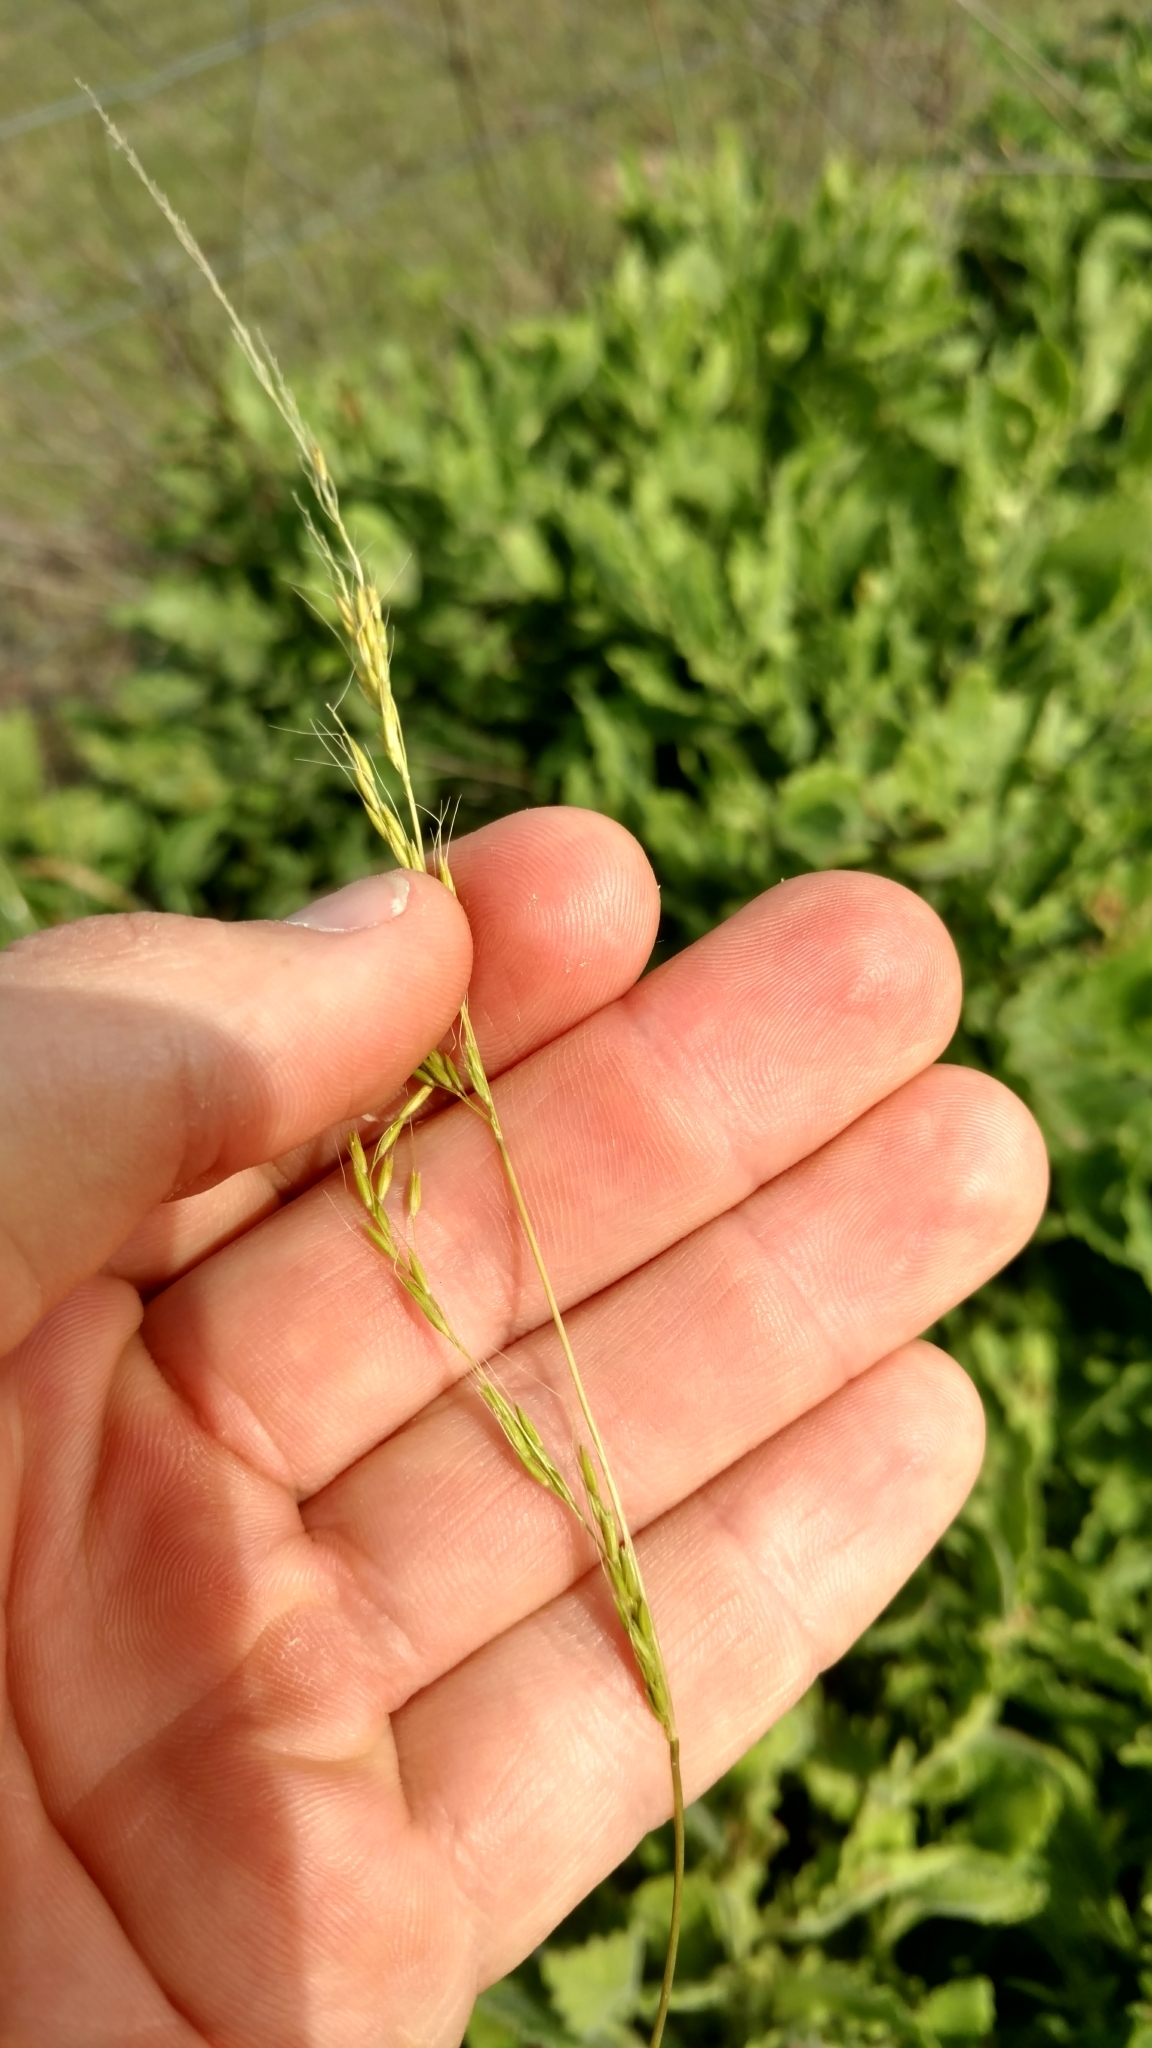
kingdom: Plantae
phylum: Tracheophyta
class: Liliopsida
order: Poales
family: Poaceae
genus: Limnodea
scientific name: Limnodea arkansana
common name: Ozark-grass
